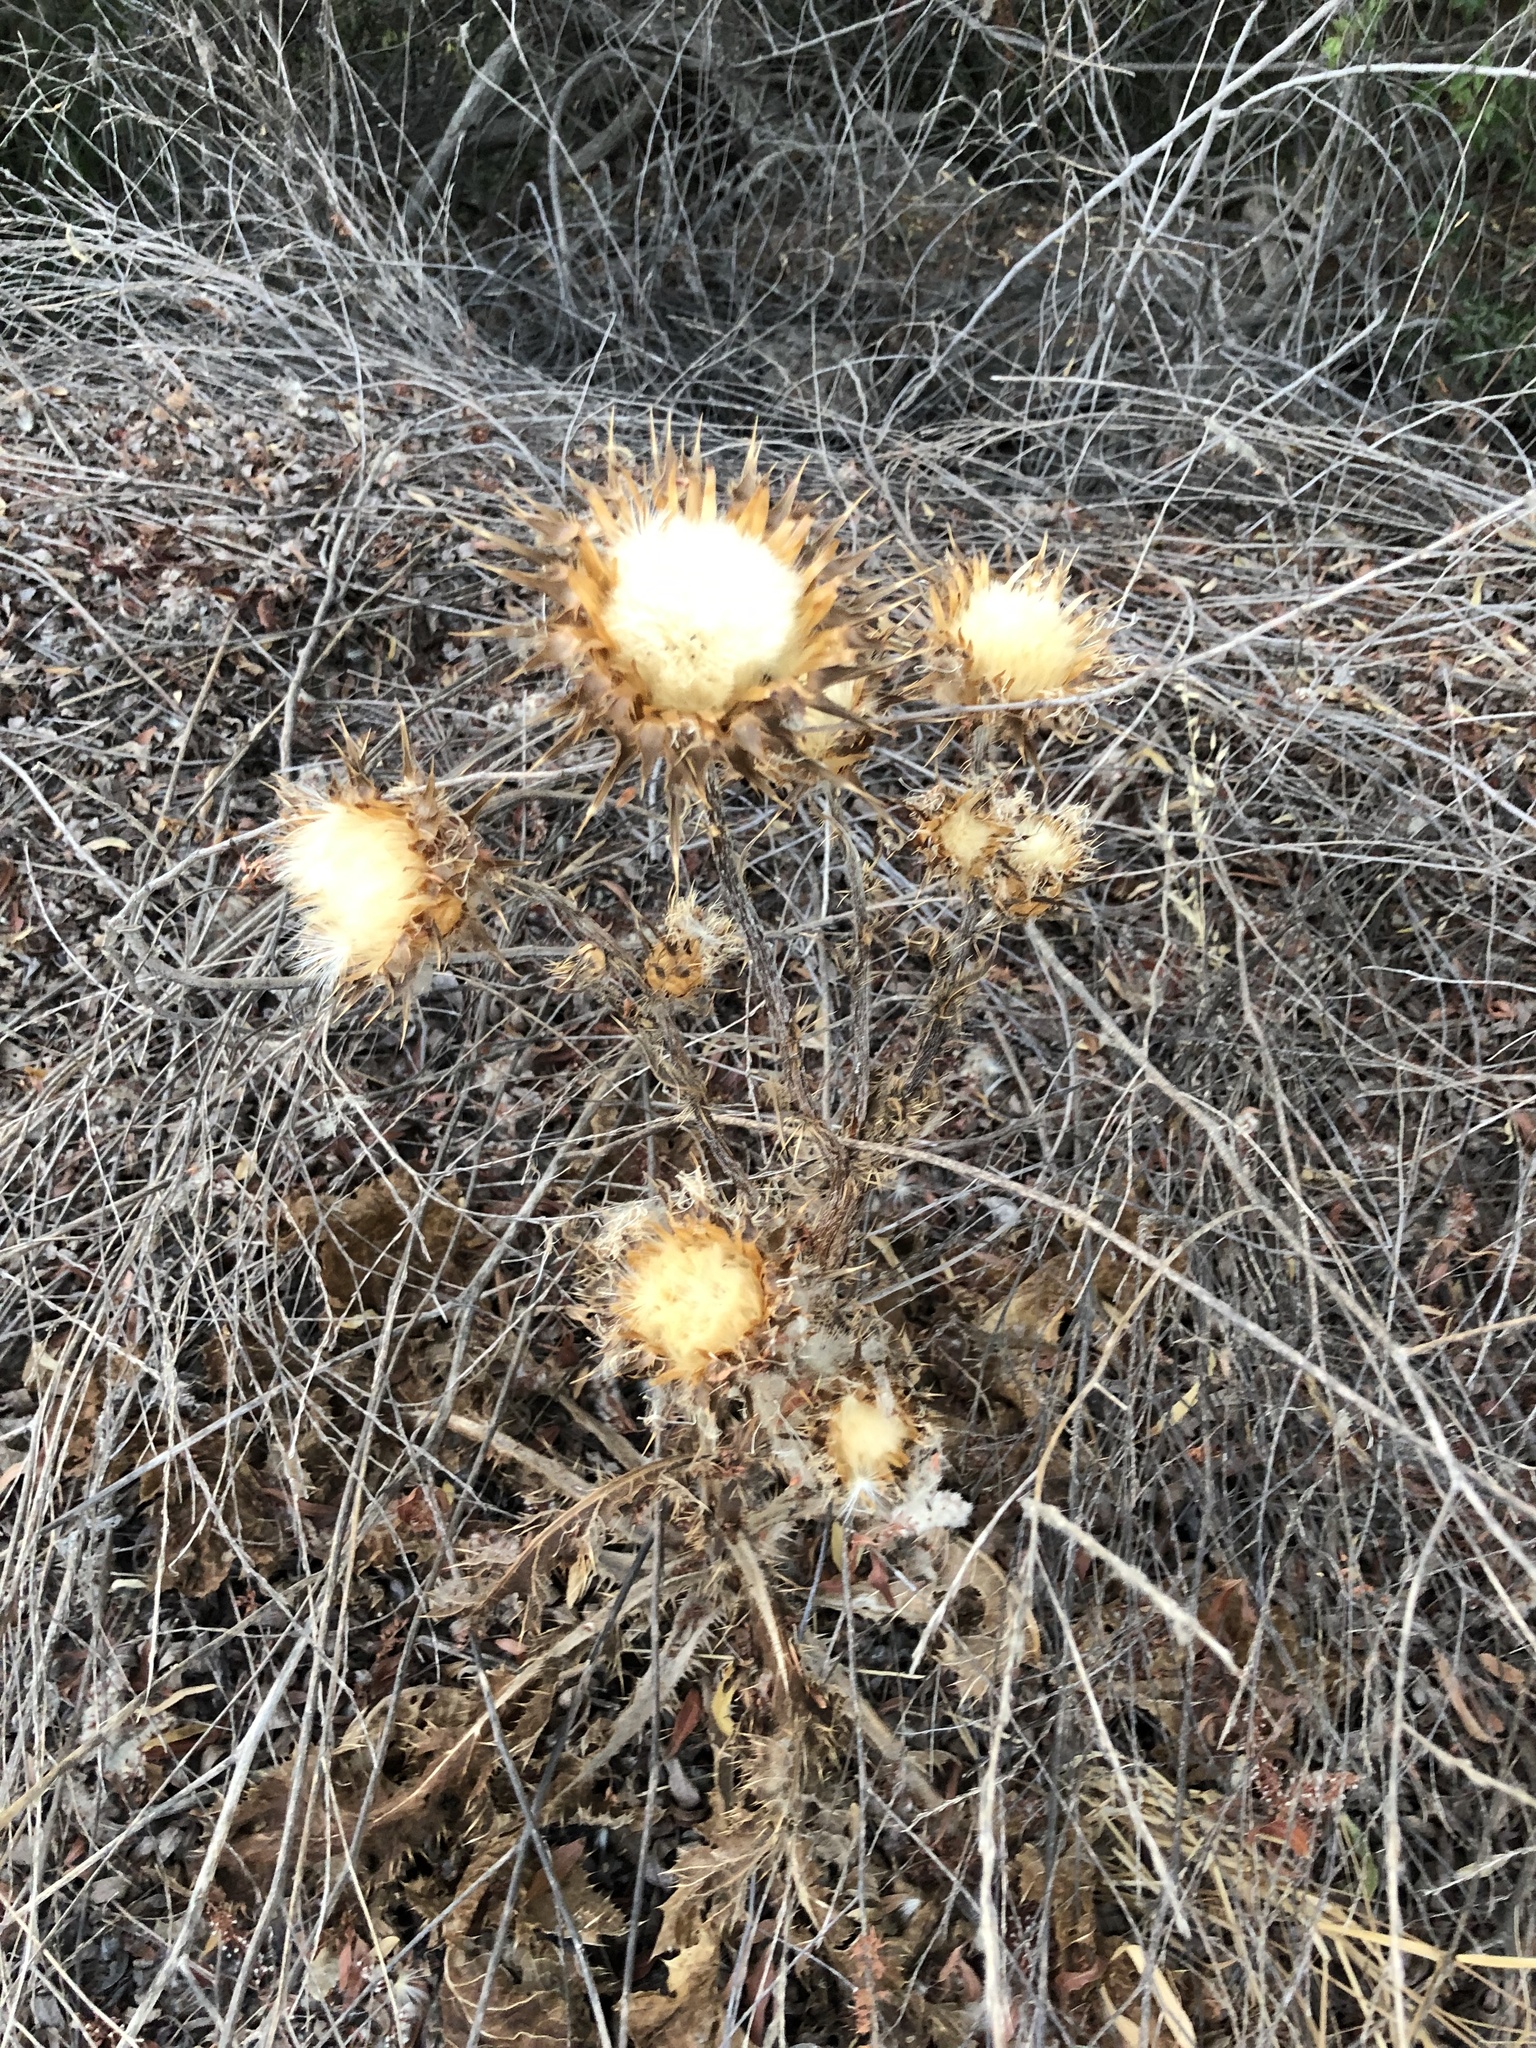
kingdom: Plantae
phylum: Tracheophyta
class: Magnoliopsida
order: Asterales
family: Asteraceae
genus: Silybum
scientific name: Silybum marianum
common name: Milk thistle
